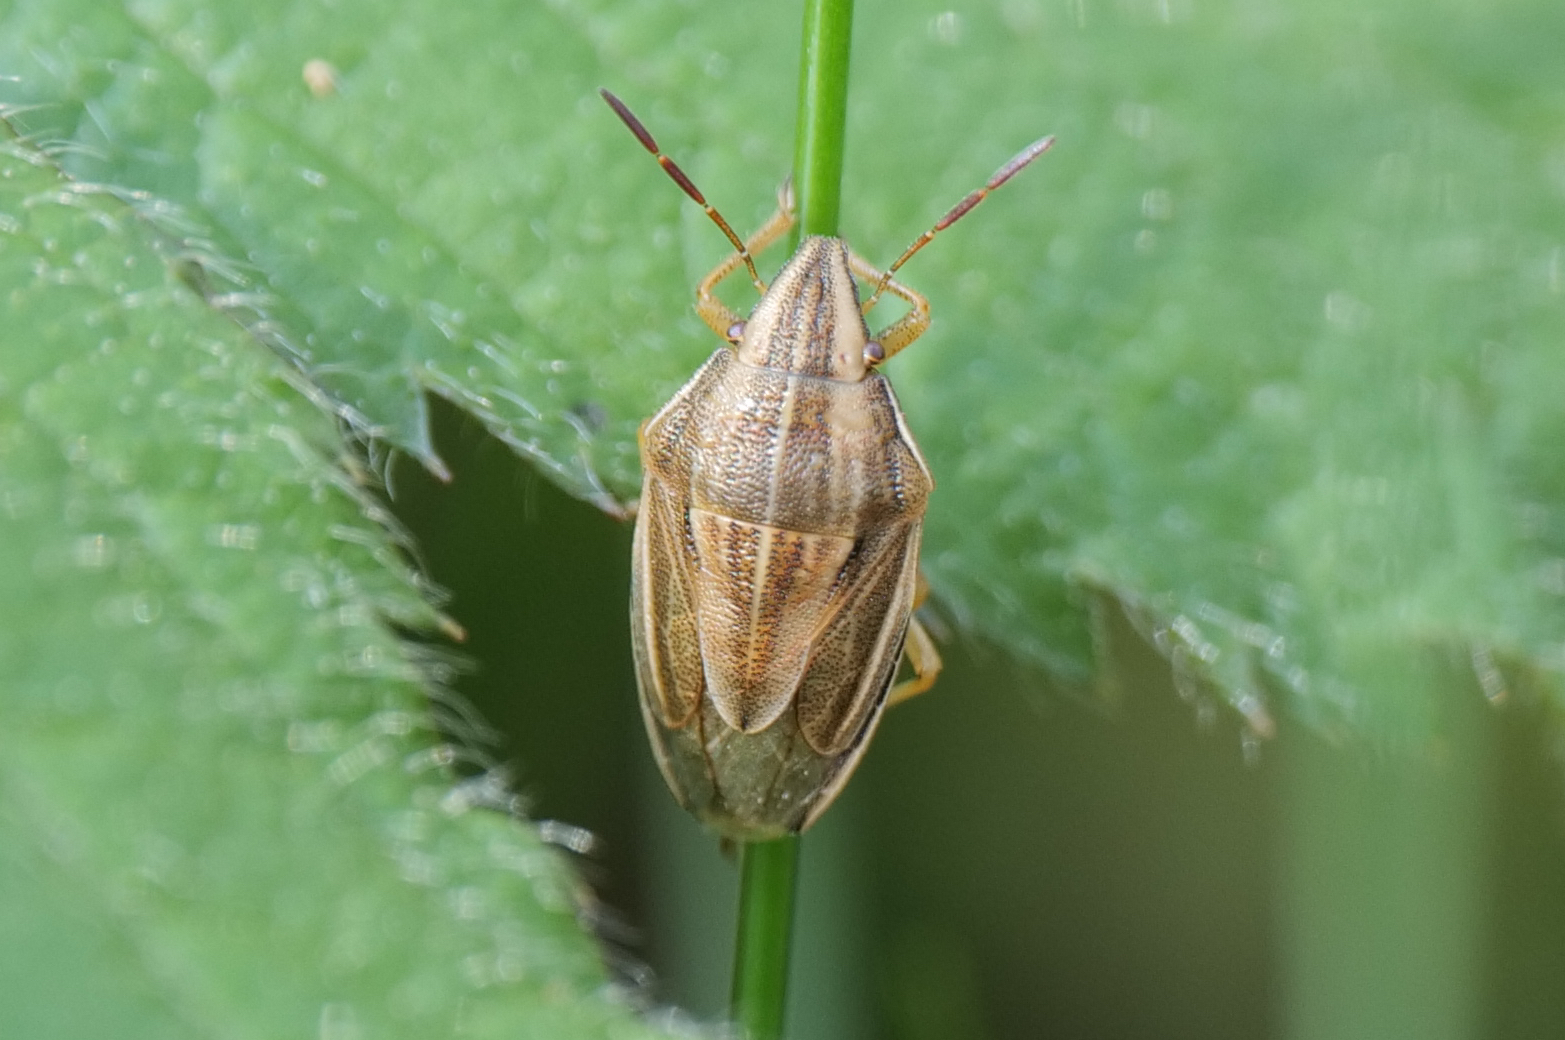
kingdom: Animalia
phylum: Arthropoda
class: Insecta
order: Hemiptera
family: Pentatomidae
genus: Aelia
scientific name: Aelia acuminata
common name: Bishop's mitre
